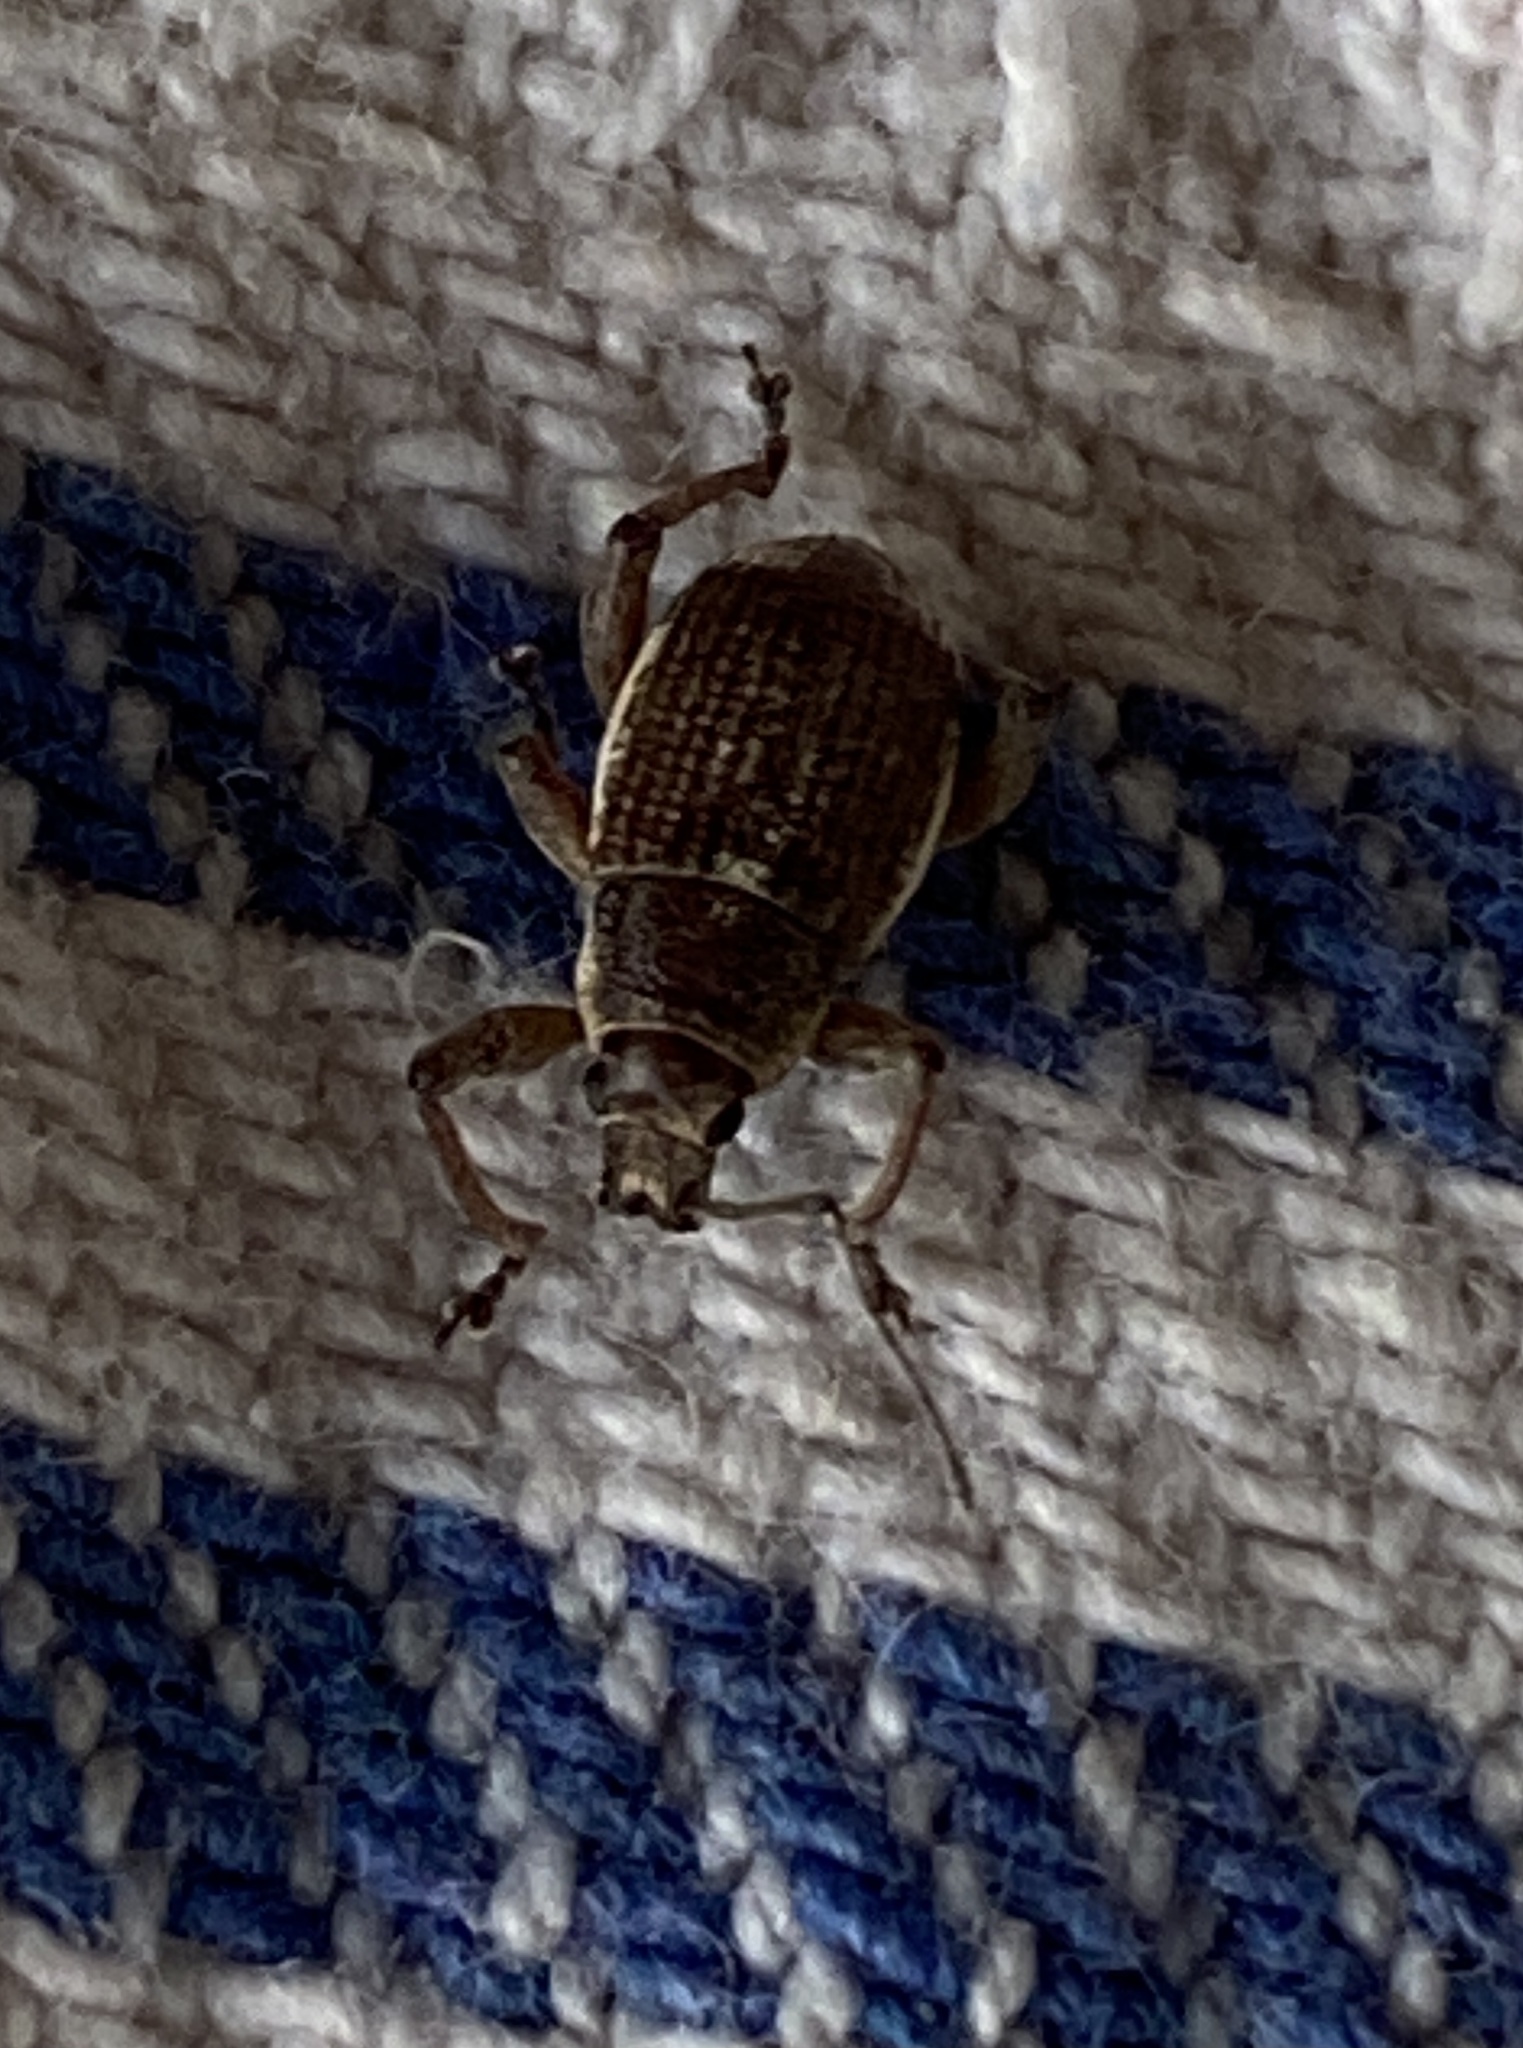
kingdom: Animalia
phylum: Arthropoda
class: Insecta
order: Coleoptera
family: Curculionidae
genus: Sciobius
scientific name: Sciobius pullus
